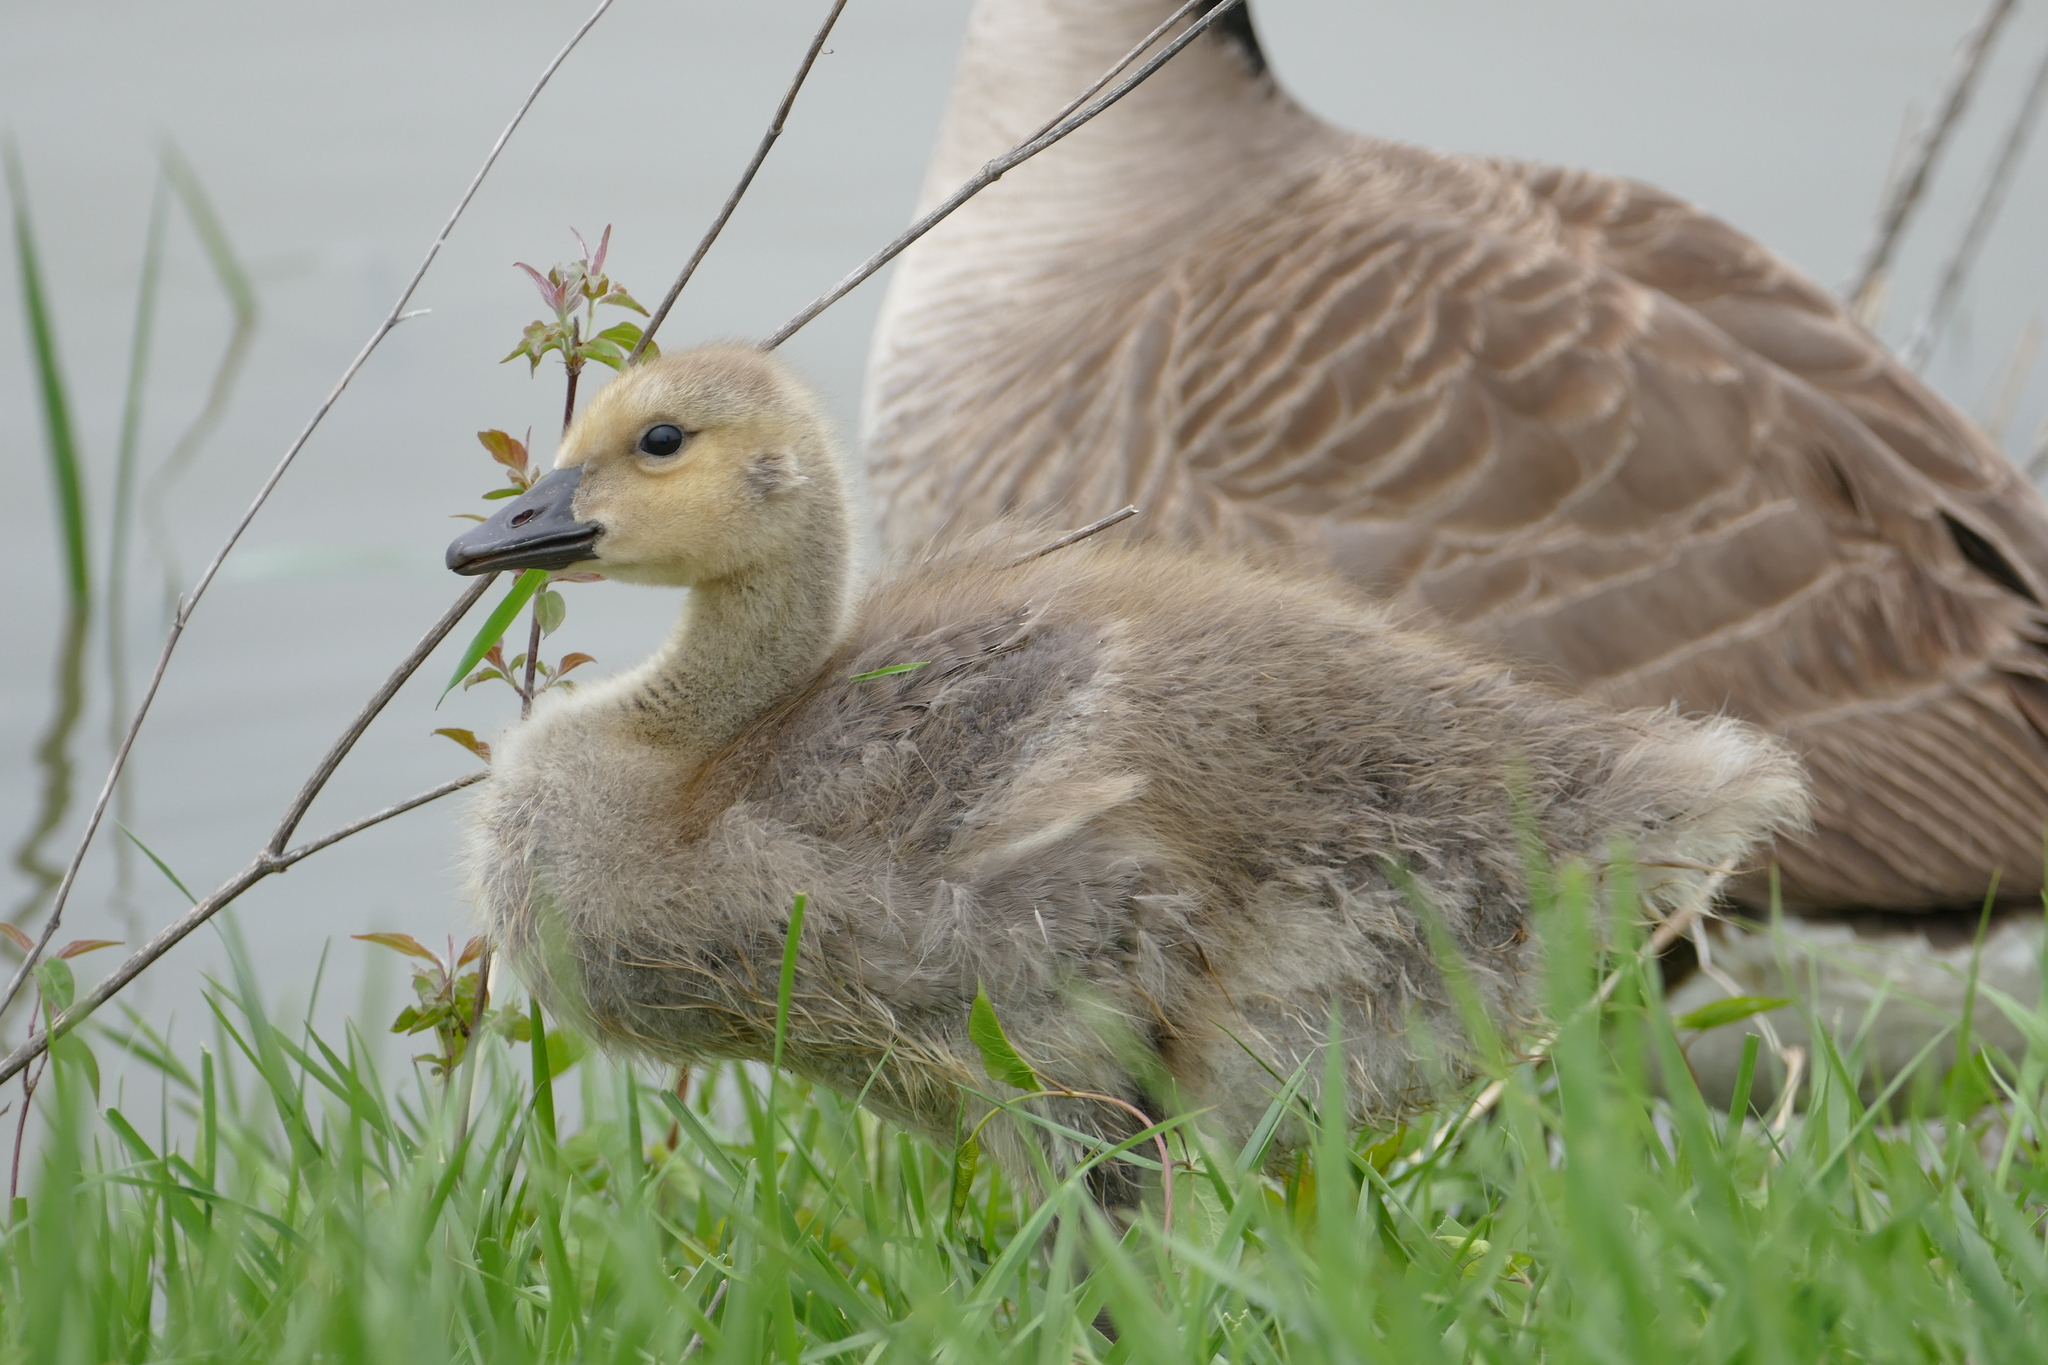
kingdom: Animalia
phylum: Chordata
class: Aves
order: Anseriformes
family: Anatidae
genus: Branta
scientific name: Branta canadensis
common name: Canada goose
